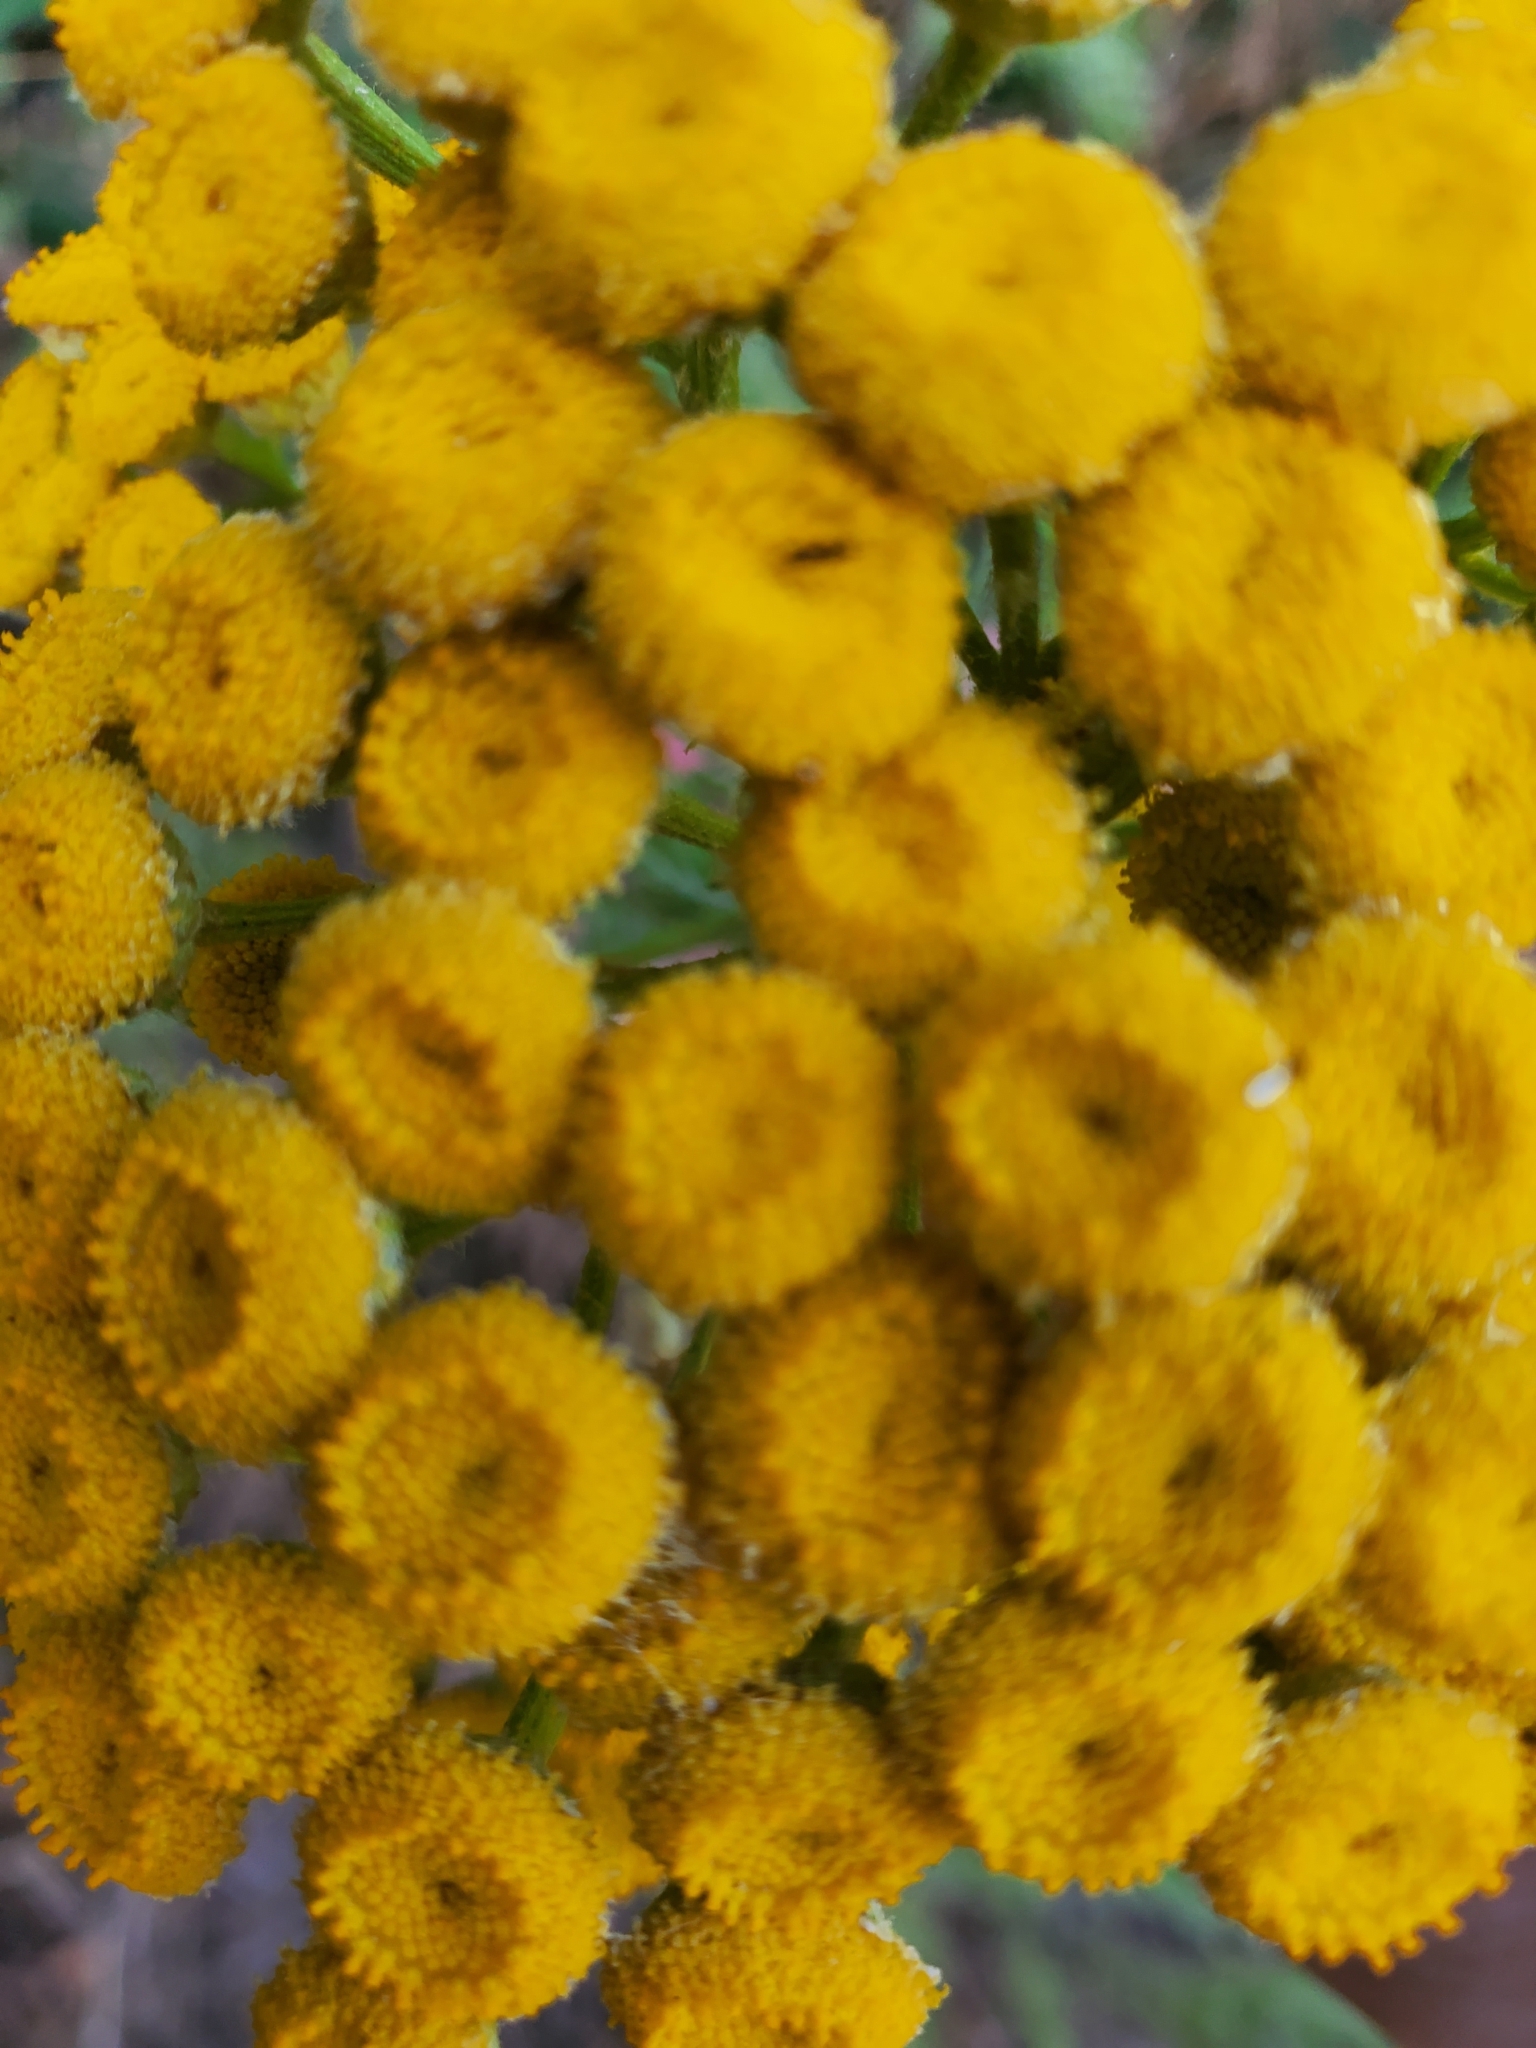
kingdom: Plantae
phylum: Tracheophyta
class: Magnoliopsida
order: Asterales
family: Asteraceae
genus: Tanacetum
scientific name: Tanacetum vulgare
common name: Common tansy
